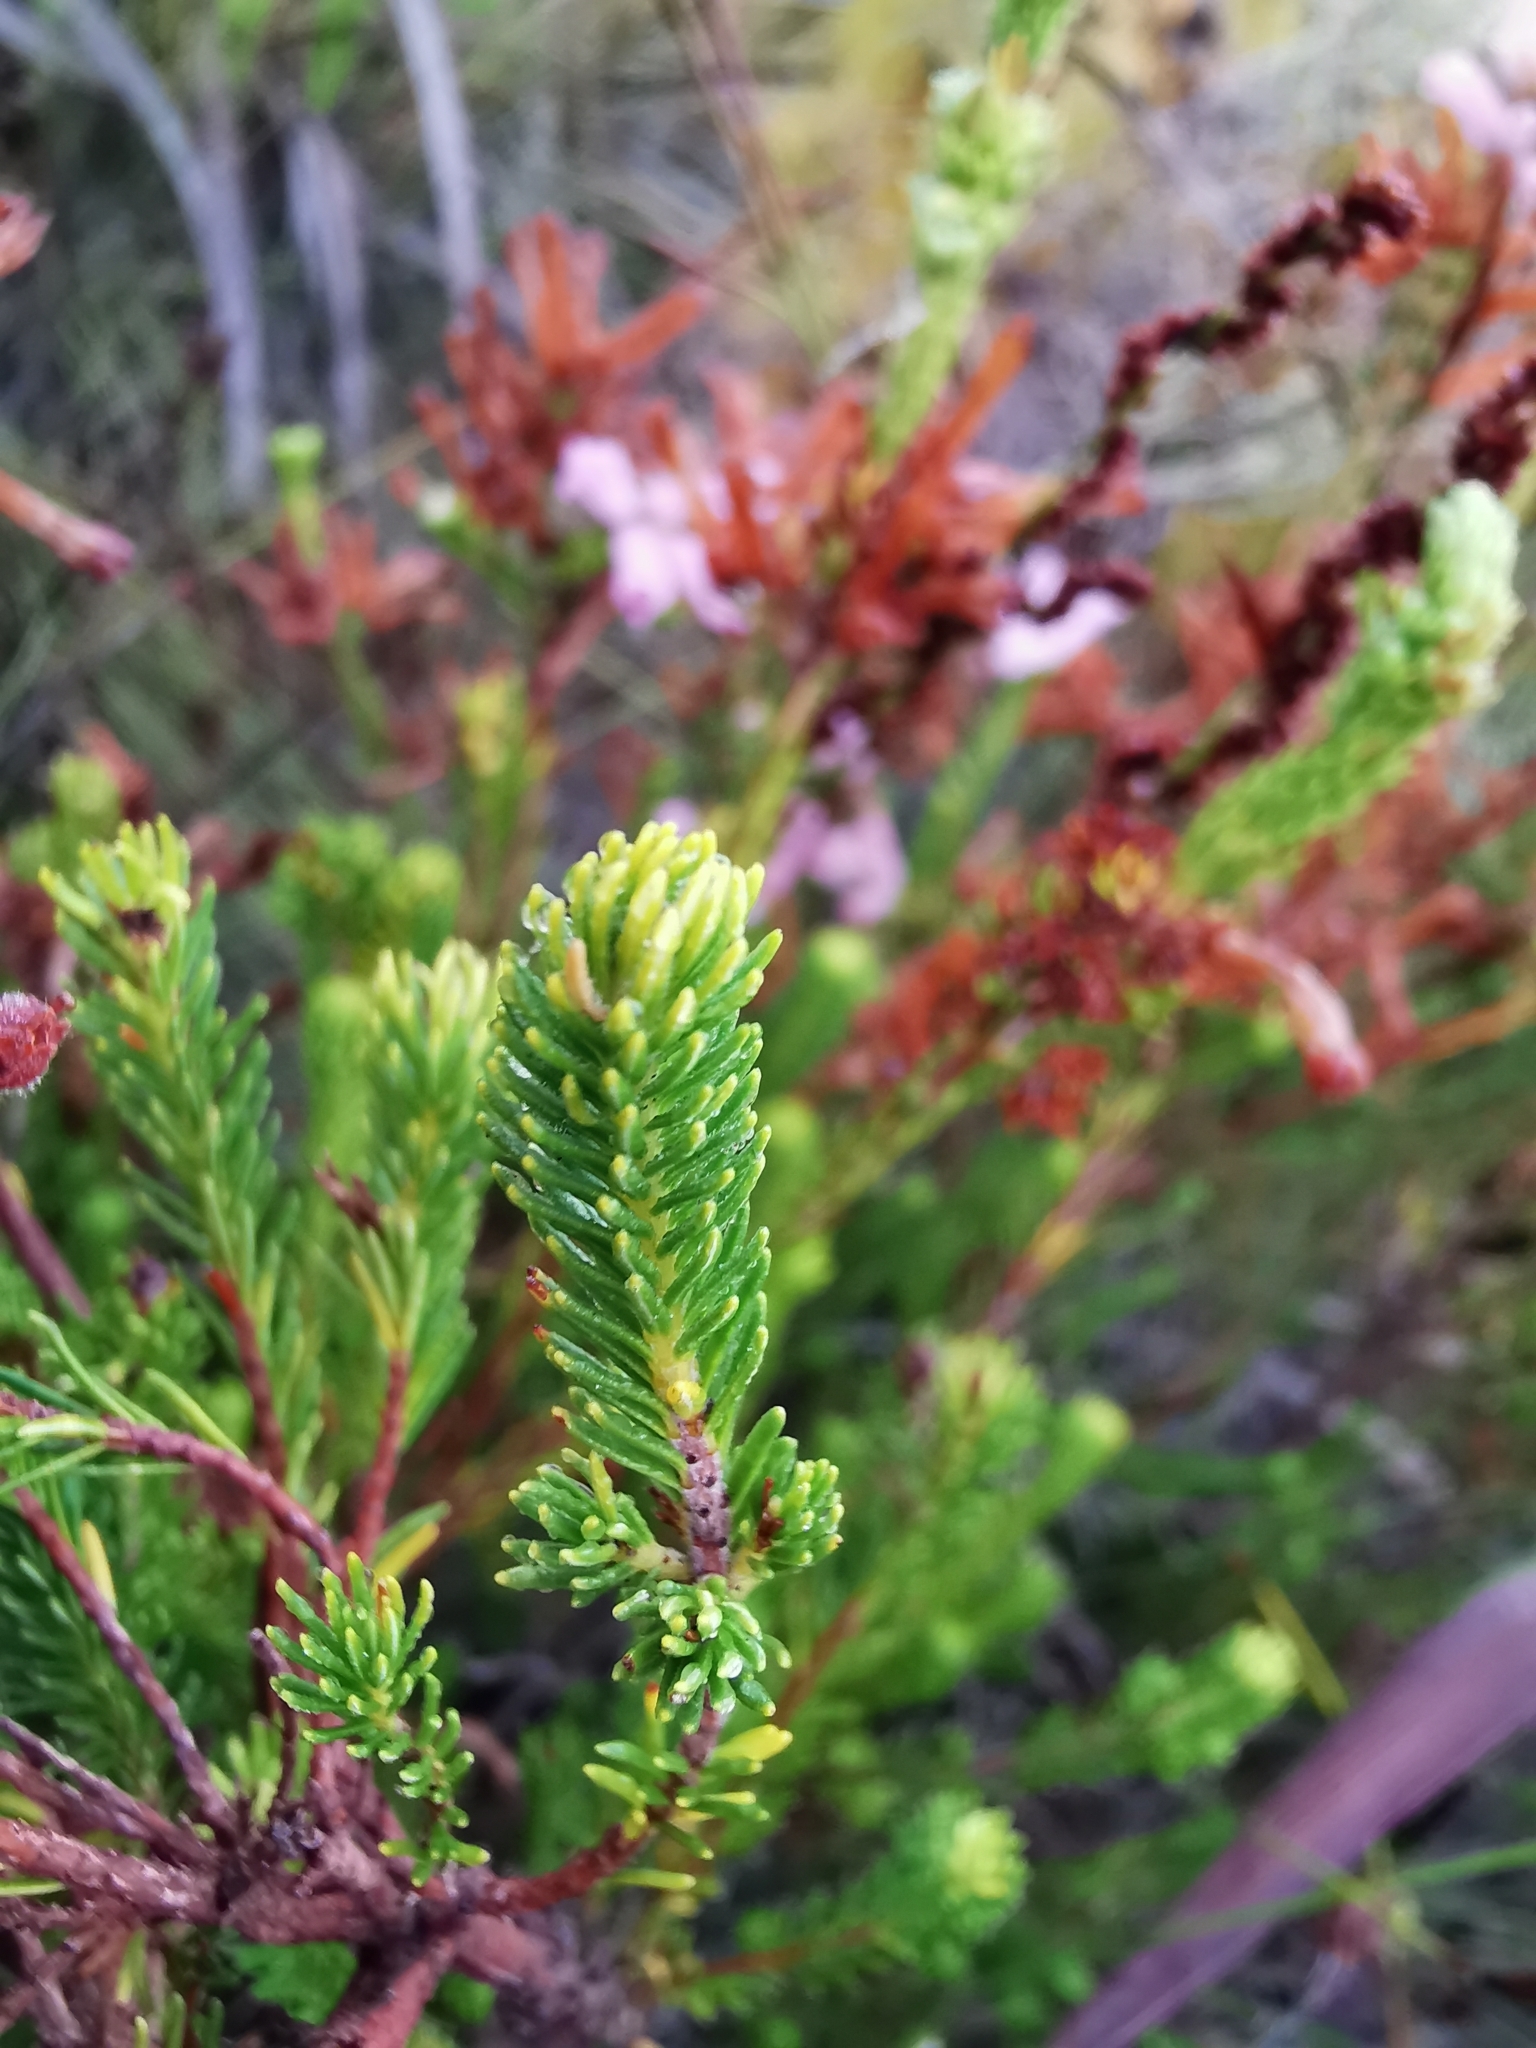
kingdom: Plantae
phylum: Tracheophyta
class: Magnoliopsida
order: Ericales
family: Ericaceae
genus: Erica
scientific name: Erica verticillata
